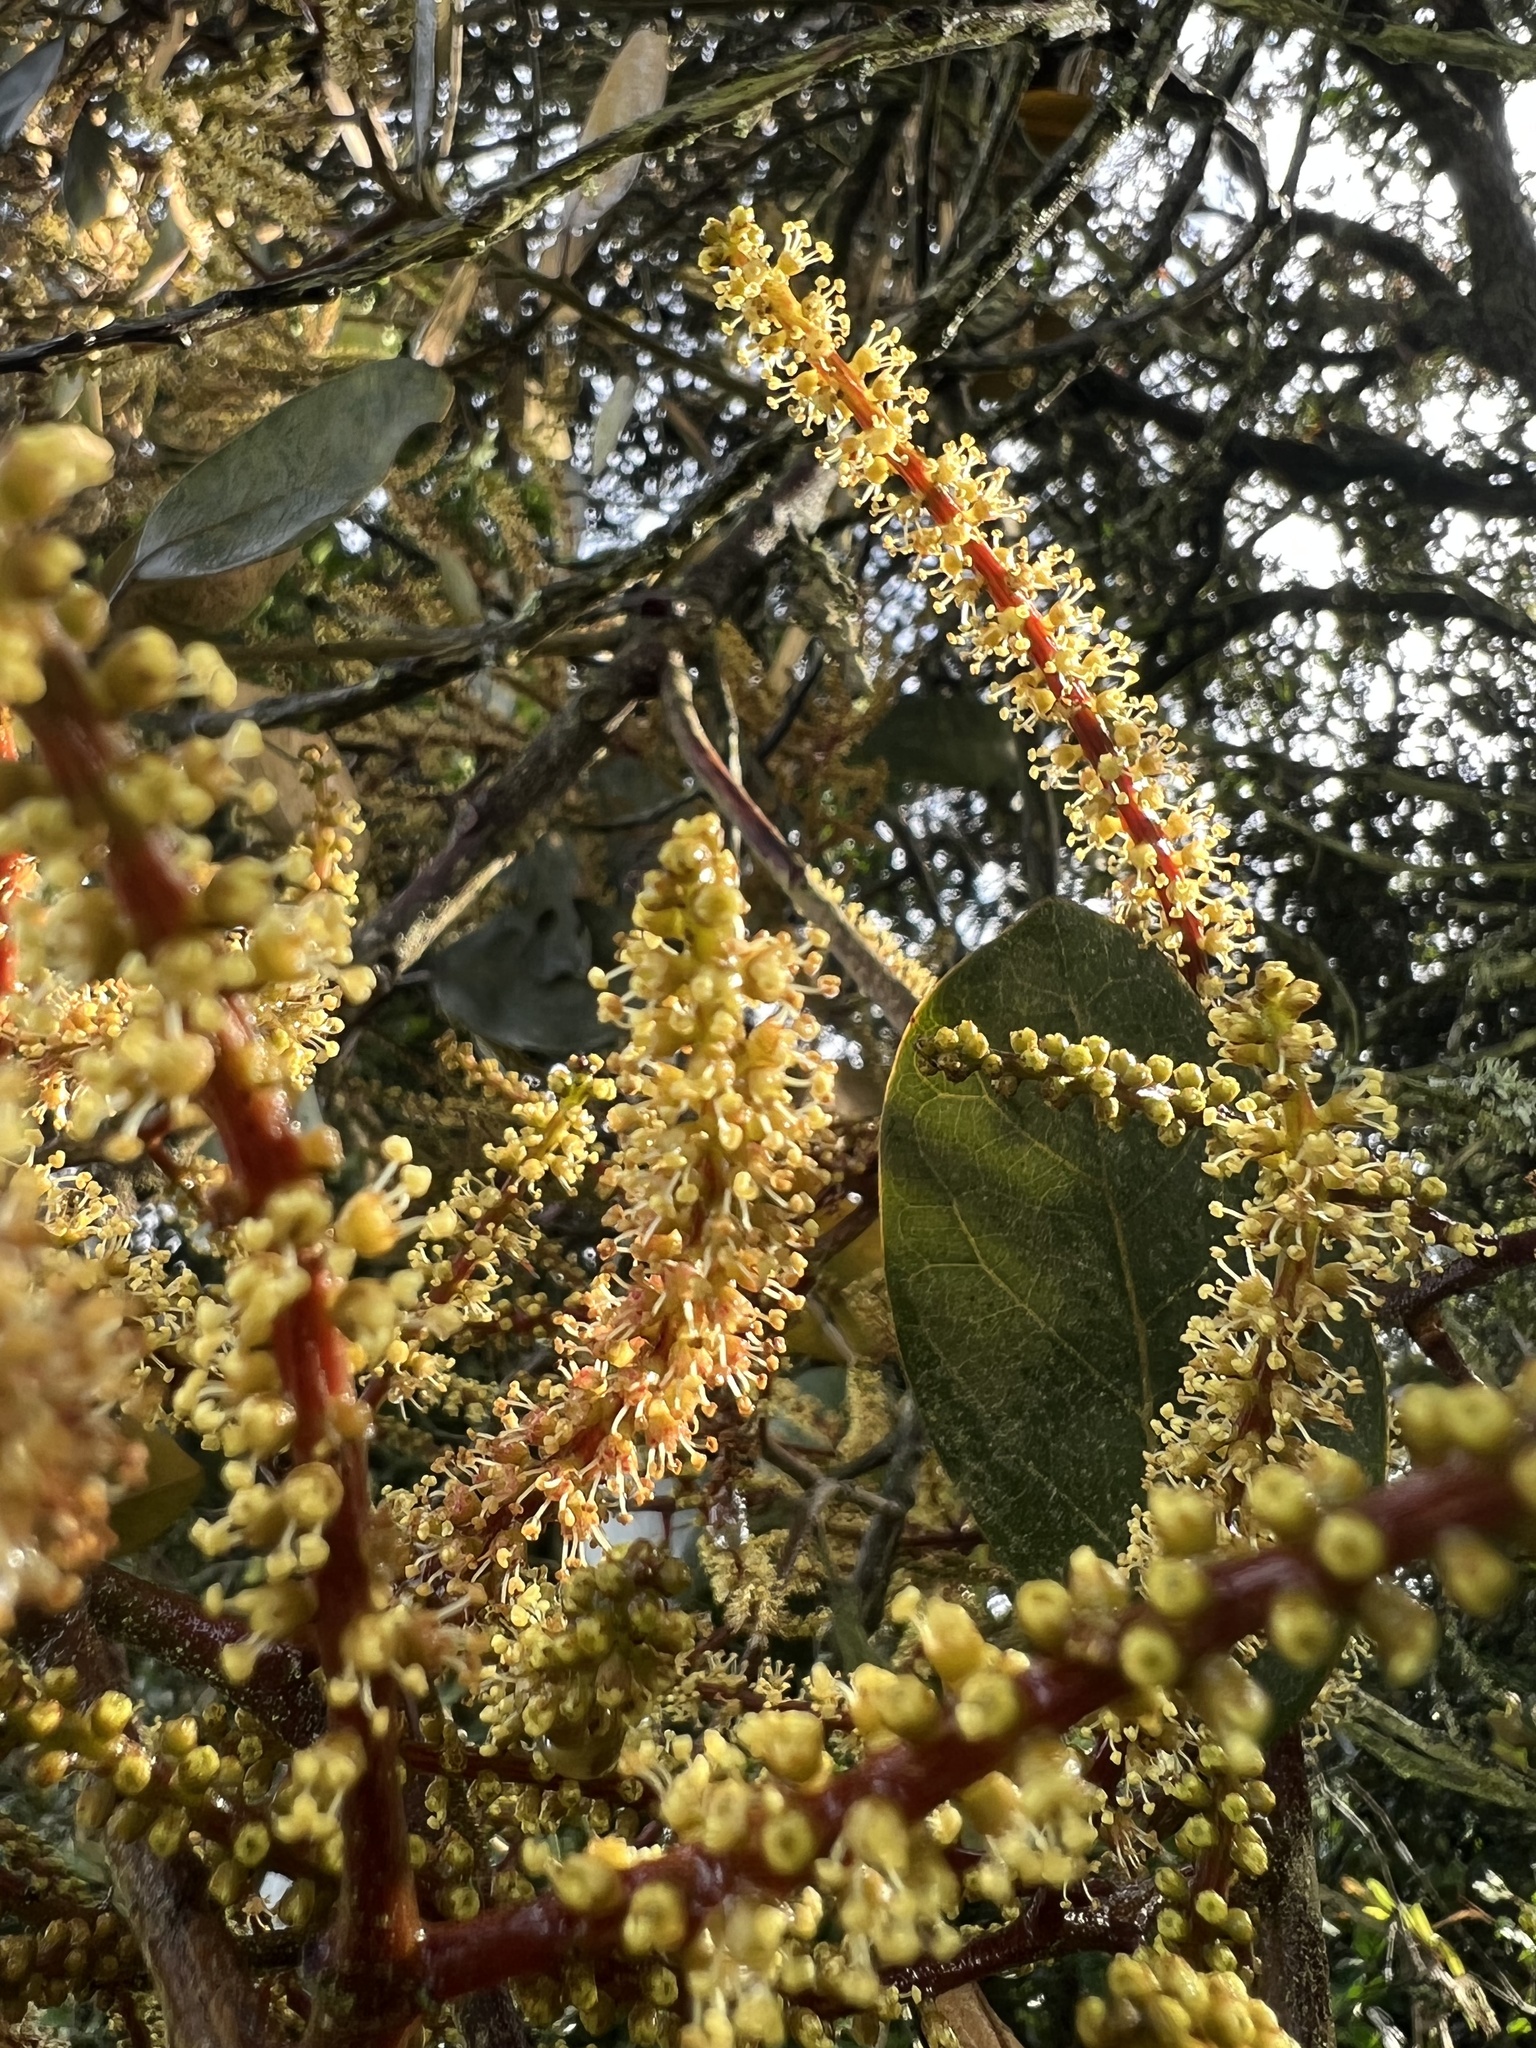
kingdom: Plantae
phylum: Tracheophyta
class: Magnoliopsida
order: Malpighiales
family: Phyllanthaceae
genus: Hieronyma
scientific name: Hieronyma rufa
